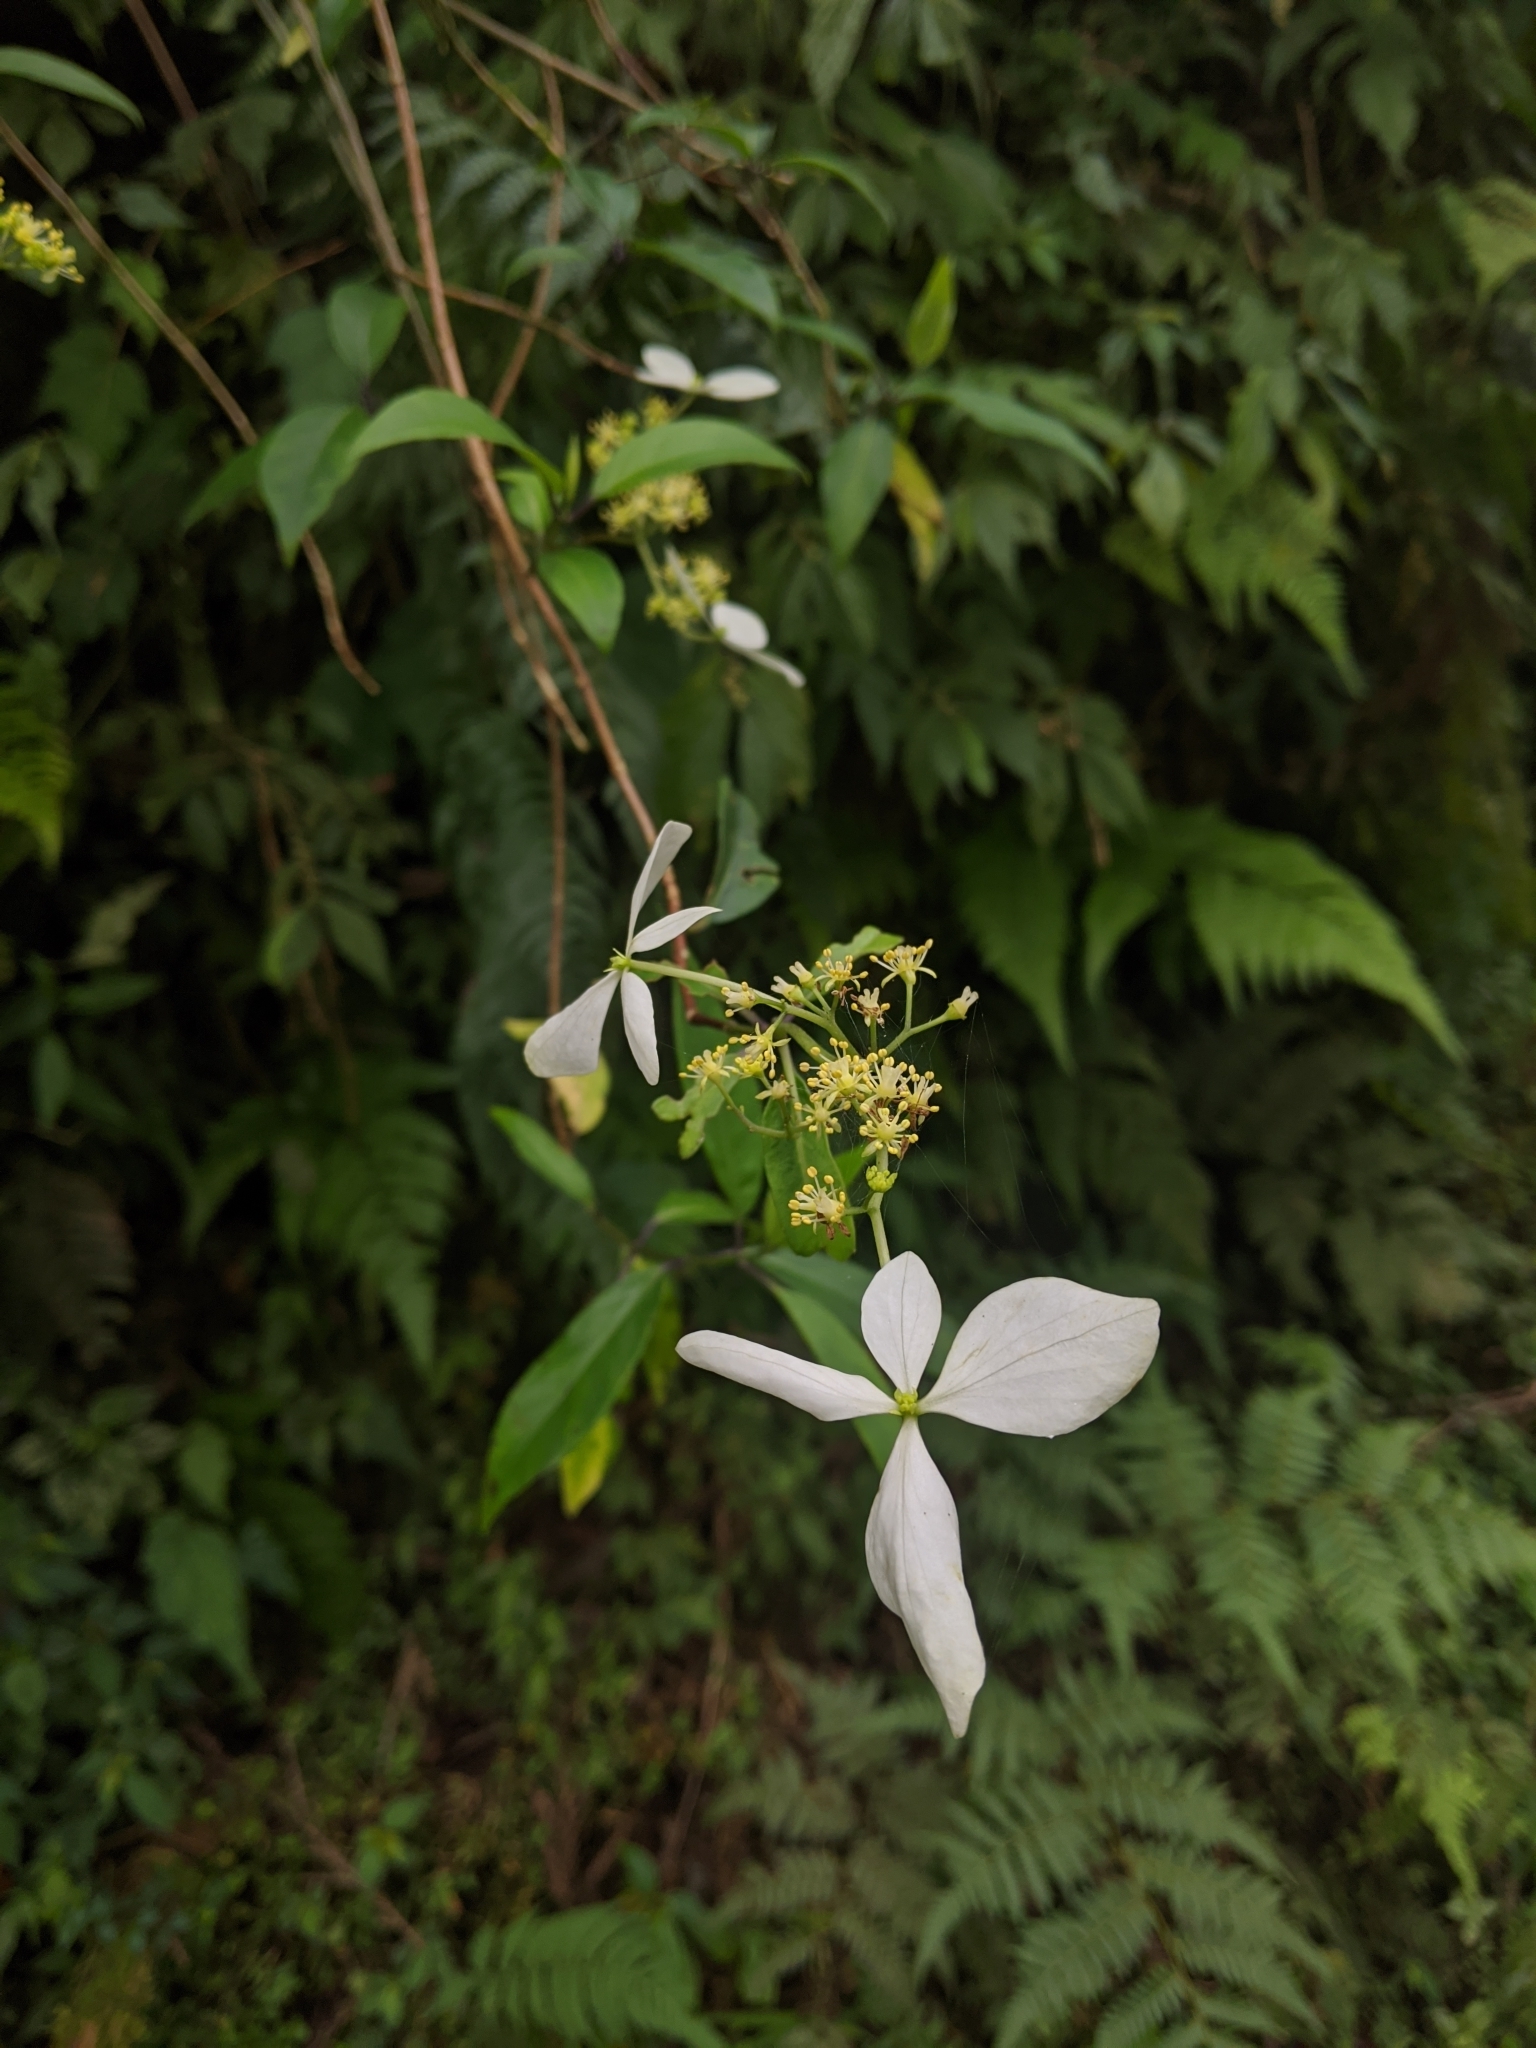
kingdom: Plantae
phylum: Tracheophyta
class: Magnoliopsida
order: Cornales
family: Hydrangeaceae
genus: Hydrangea
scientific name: Hydrangea chinensis
